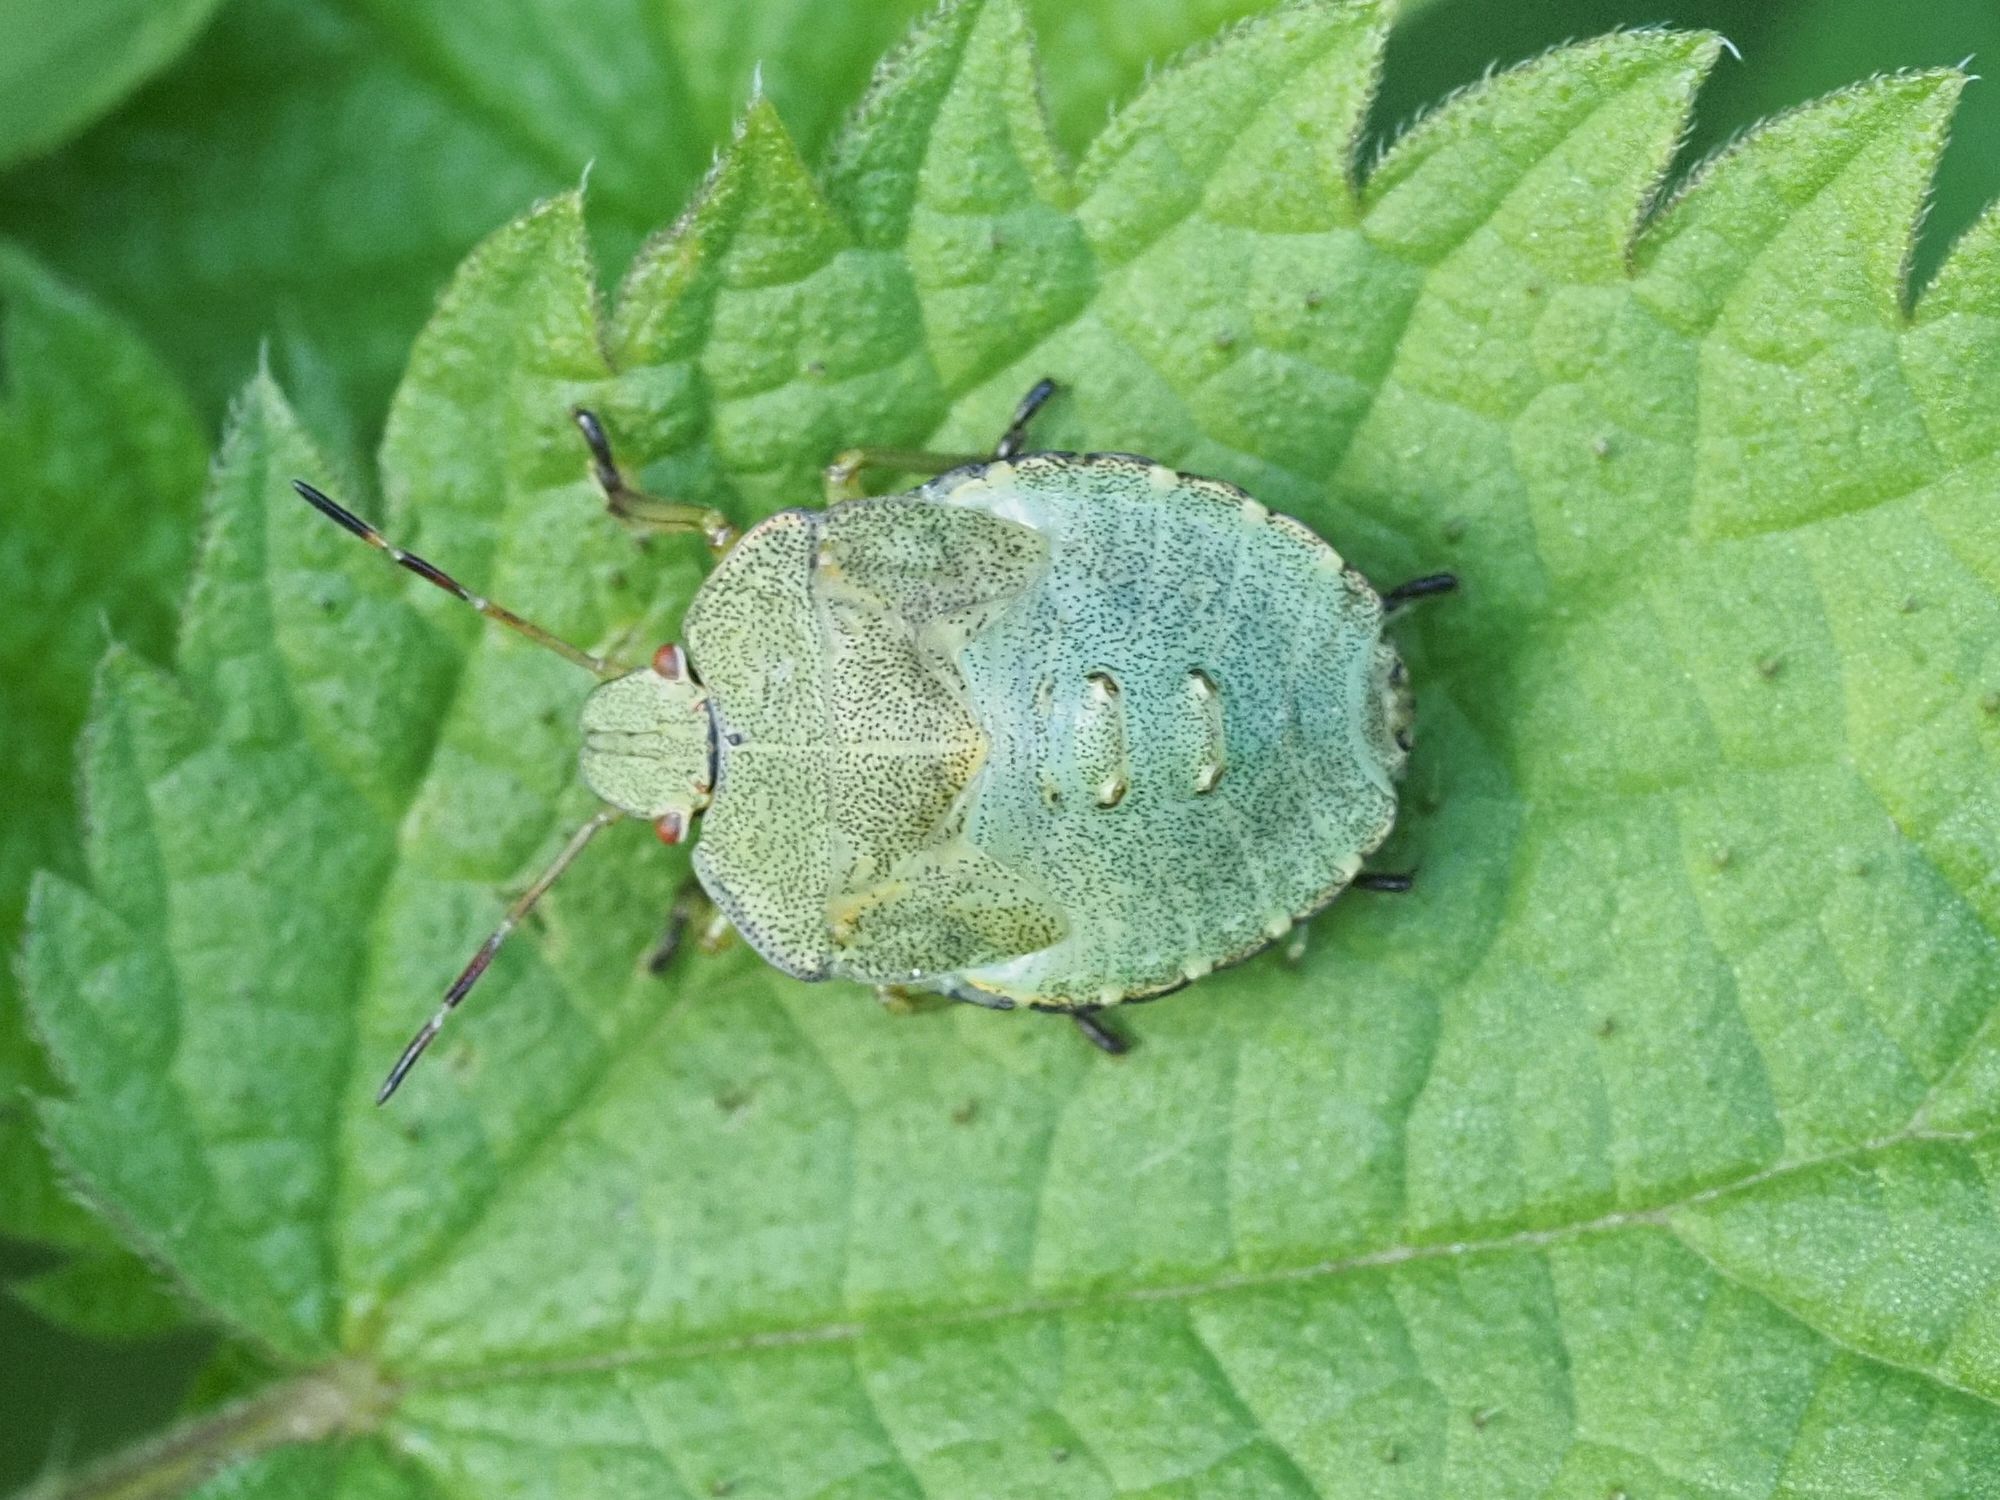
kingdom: Animalia
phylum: Arthropoda
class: Insecta
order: Hemiptera
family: Pentatomidae
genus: Palomena
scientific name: Palomena prasina
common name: Green shieldbug
